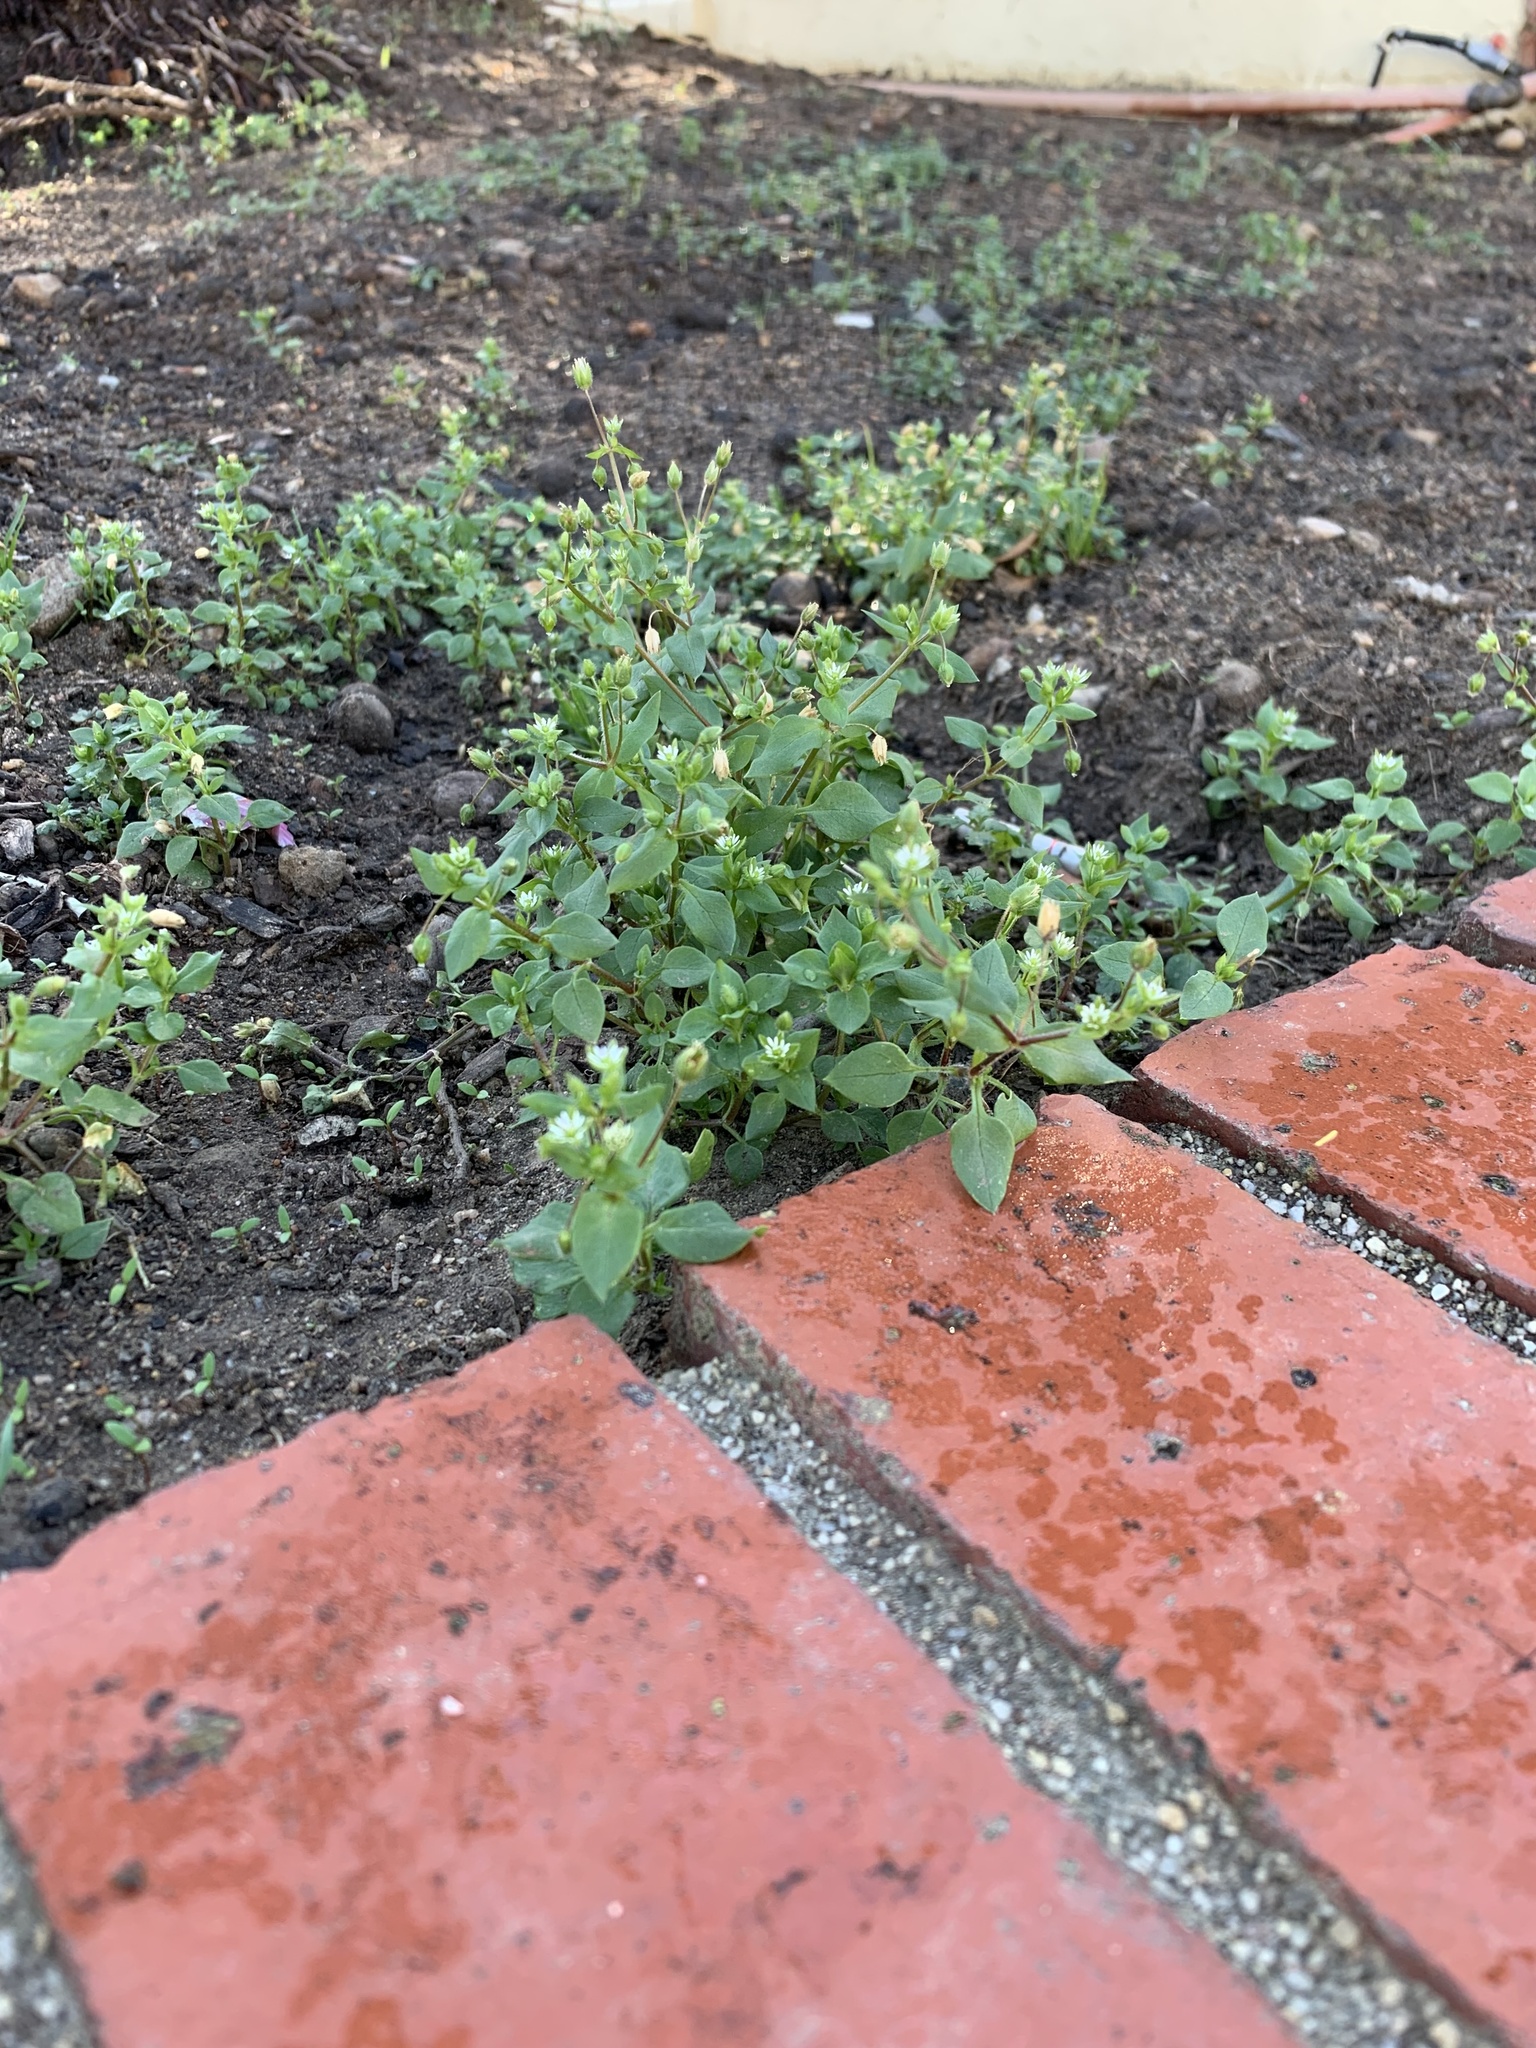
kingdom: Plantae
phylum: Tracheophyta
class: Magnoliopsida
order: Caryophyllales
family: Caryophyllaceae
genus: Stellaria
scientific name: Stellaria media
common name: Common chickweed
